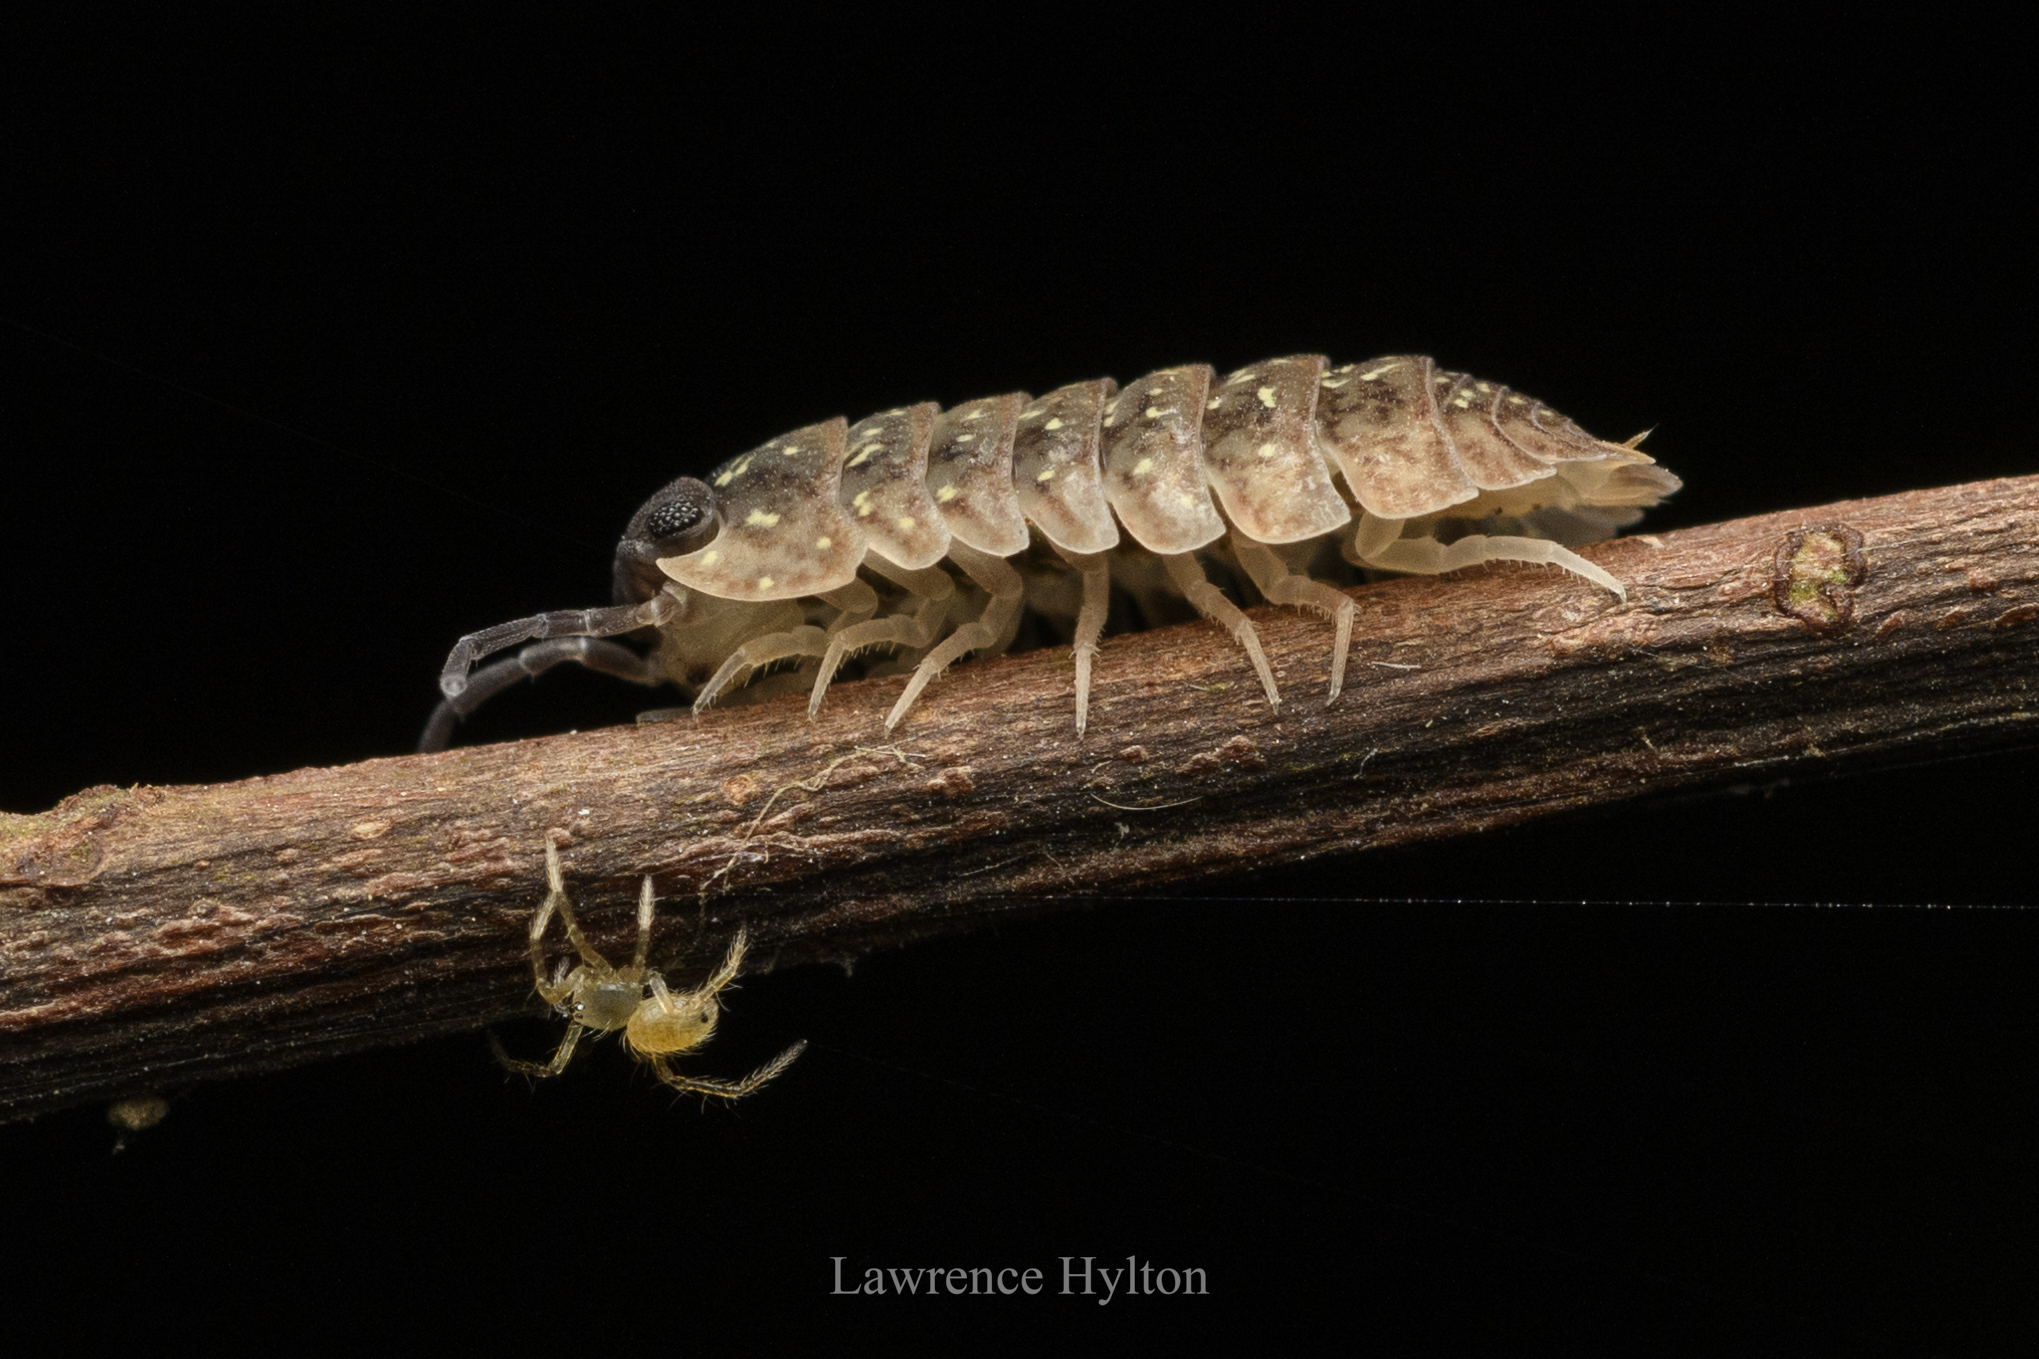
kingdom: Animalia
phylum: Arthropoda
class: Malacostraca
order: Isopoda
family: Armadillidae
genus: Dryadillo
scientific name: Dryadillo maculatus
